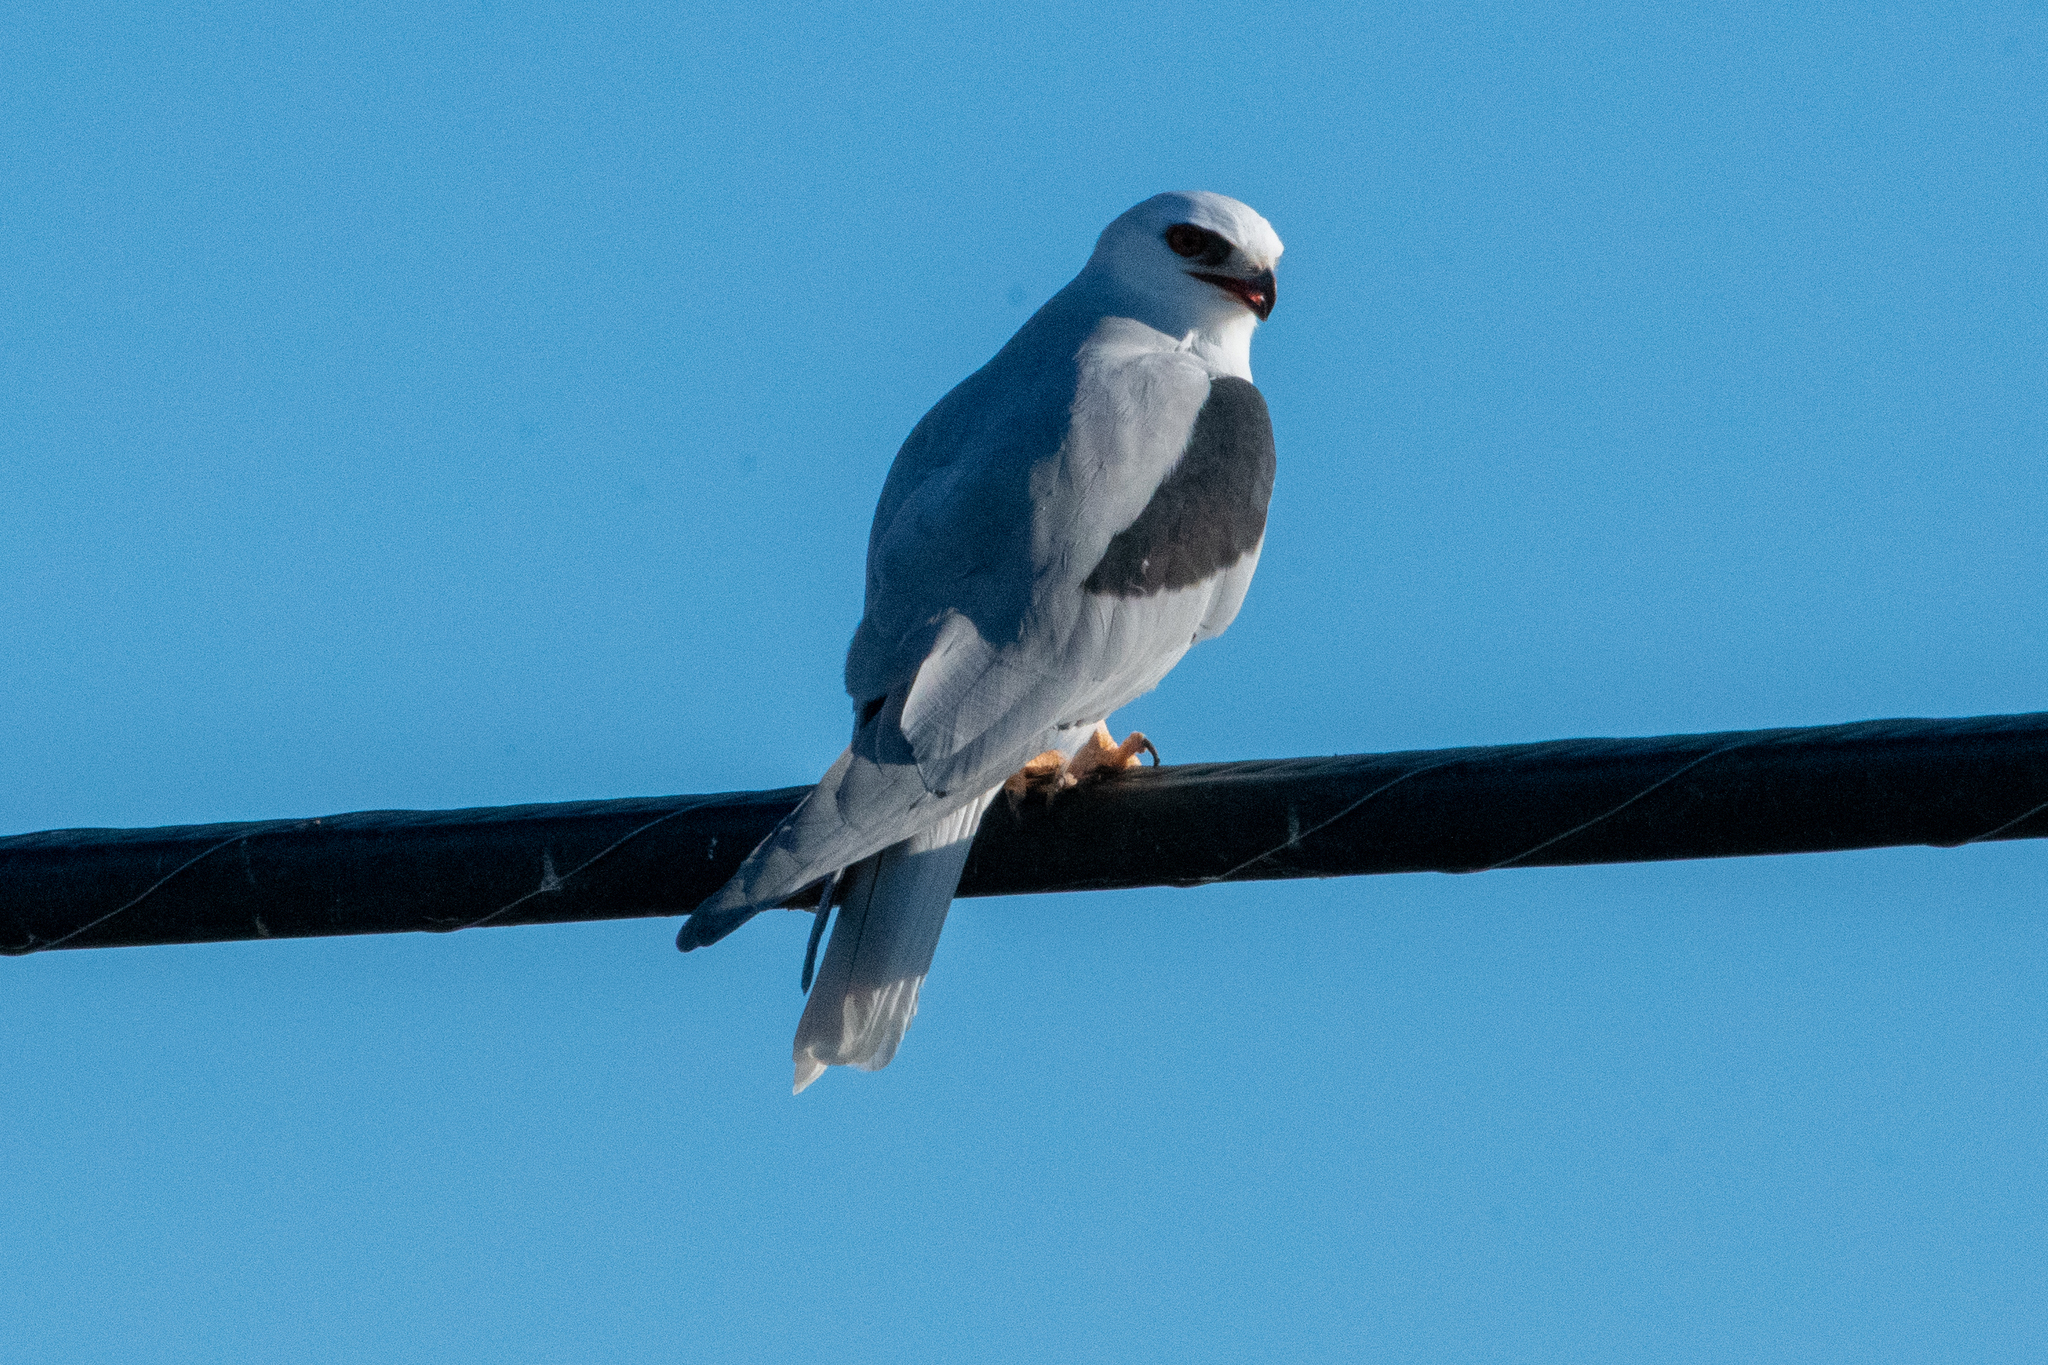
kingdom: Animalia
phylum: Chordata
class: Aves
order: Accipitriformes
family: Accipitridae
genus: Elanus
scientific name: Elanus leucurus
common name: White-tailed kite
